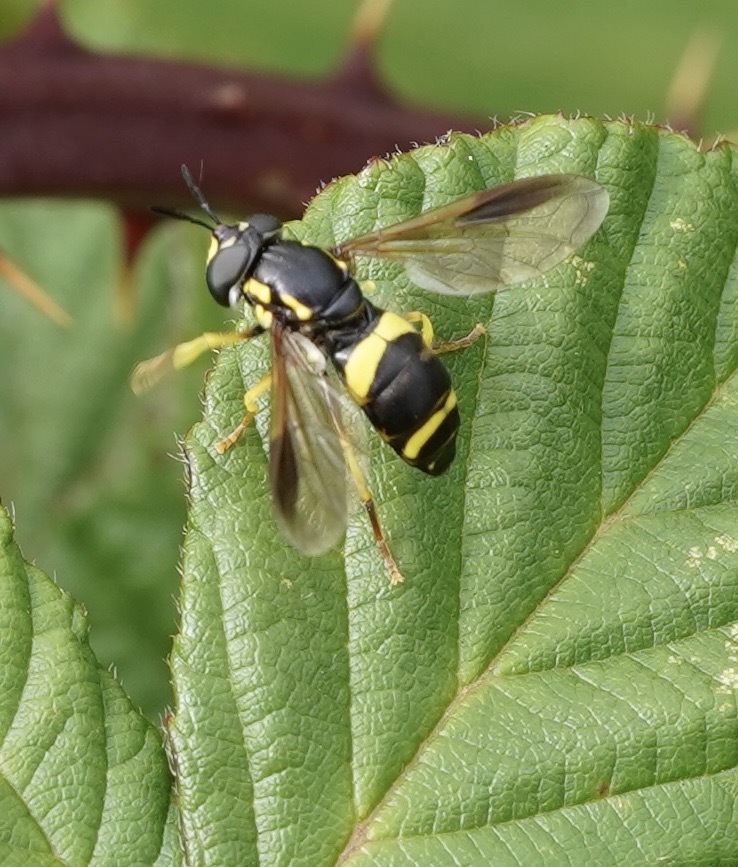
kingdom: Animalia
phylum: Arthropoda
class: Insecta
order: Diptera
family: Syrphidae
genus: Chrysotoxum
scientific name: Chrysotoxum bicincta
